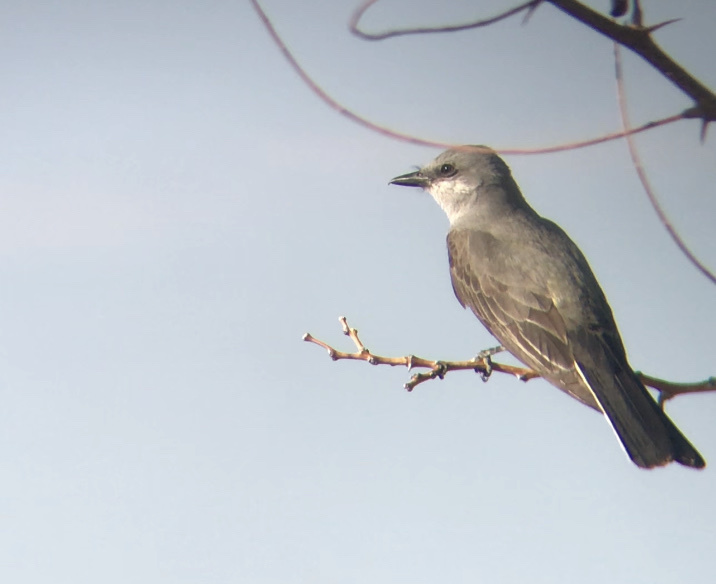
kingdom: Animalia
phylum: Chordata
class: Aves
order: Passeriformes
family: Tyrannidae
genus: Tyrannus
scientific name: Tyrannus verticalis
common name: Western kingbird
